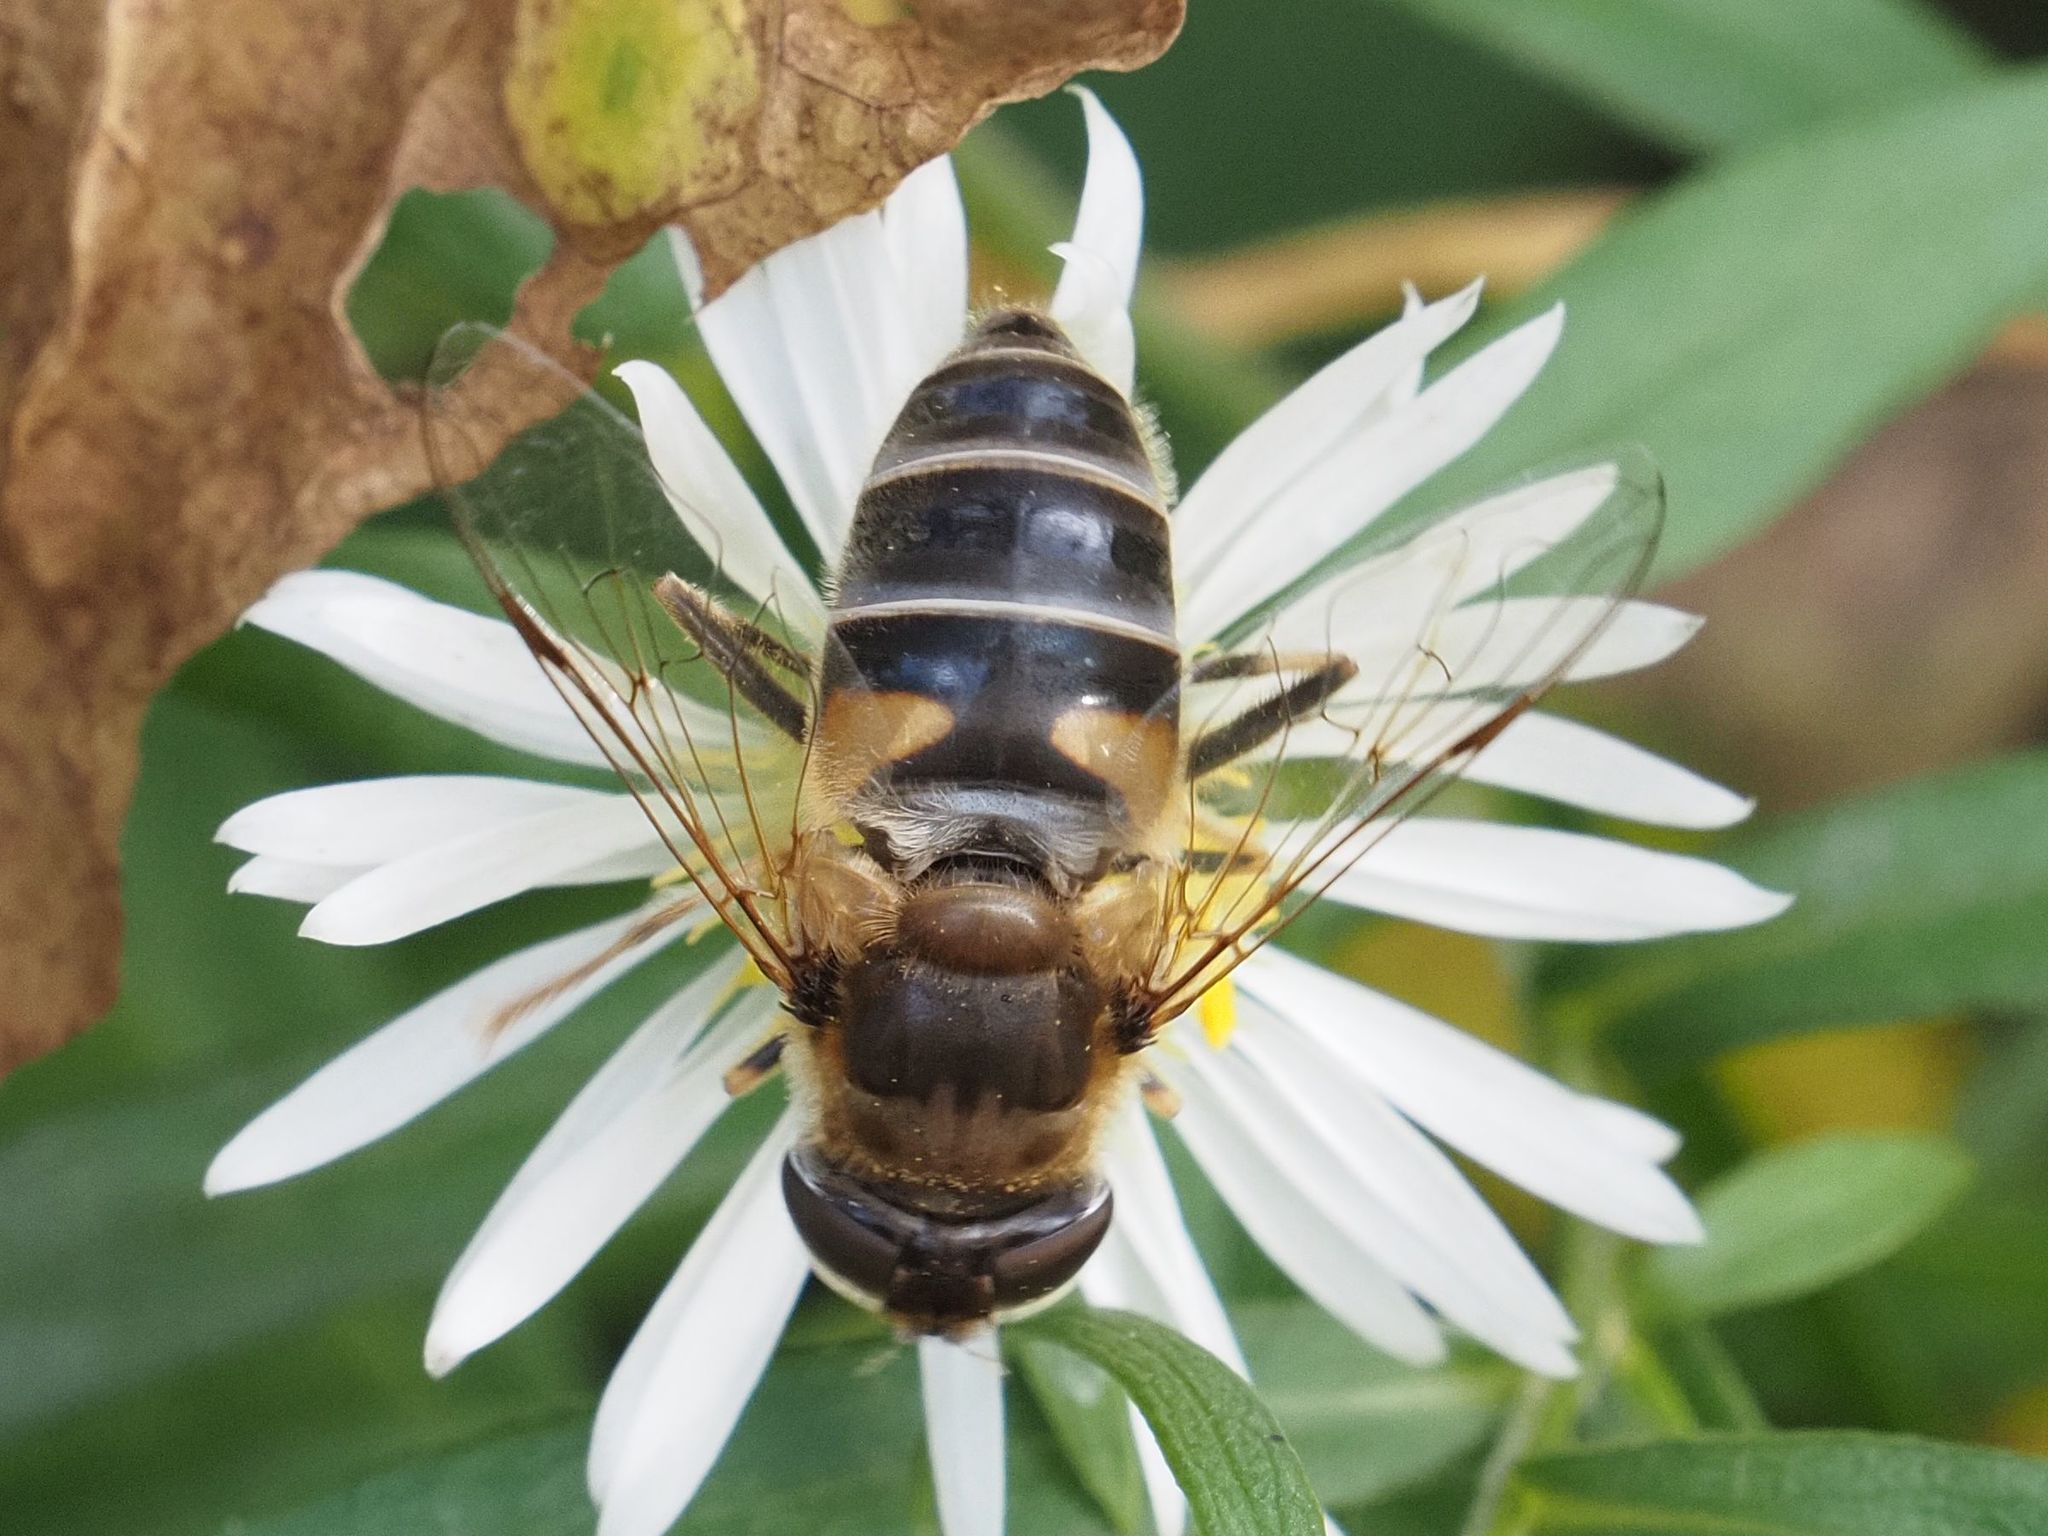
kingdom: Animalia
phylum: Arthropoda
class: Insecta
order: Diptera
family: Syrphidae
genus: Eristalis
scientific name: Eristalis pertinax
